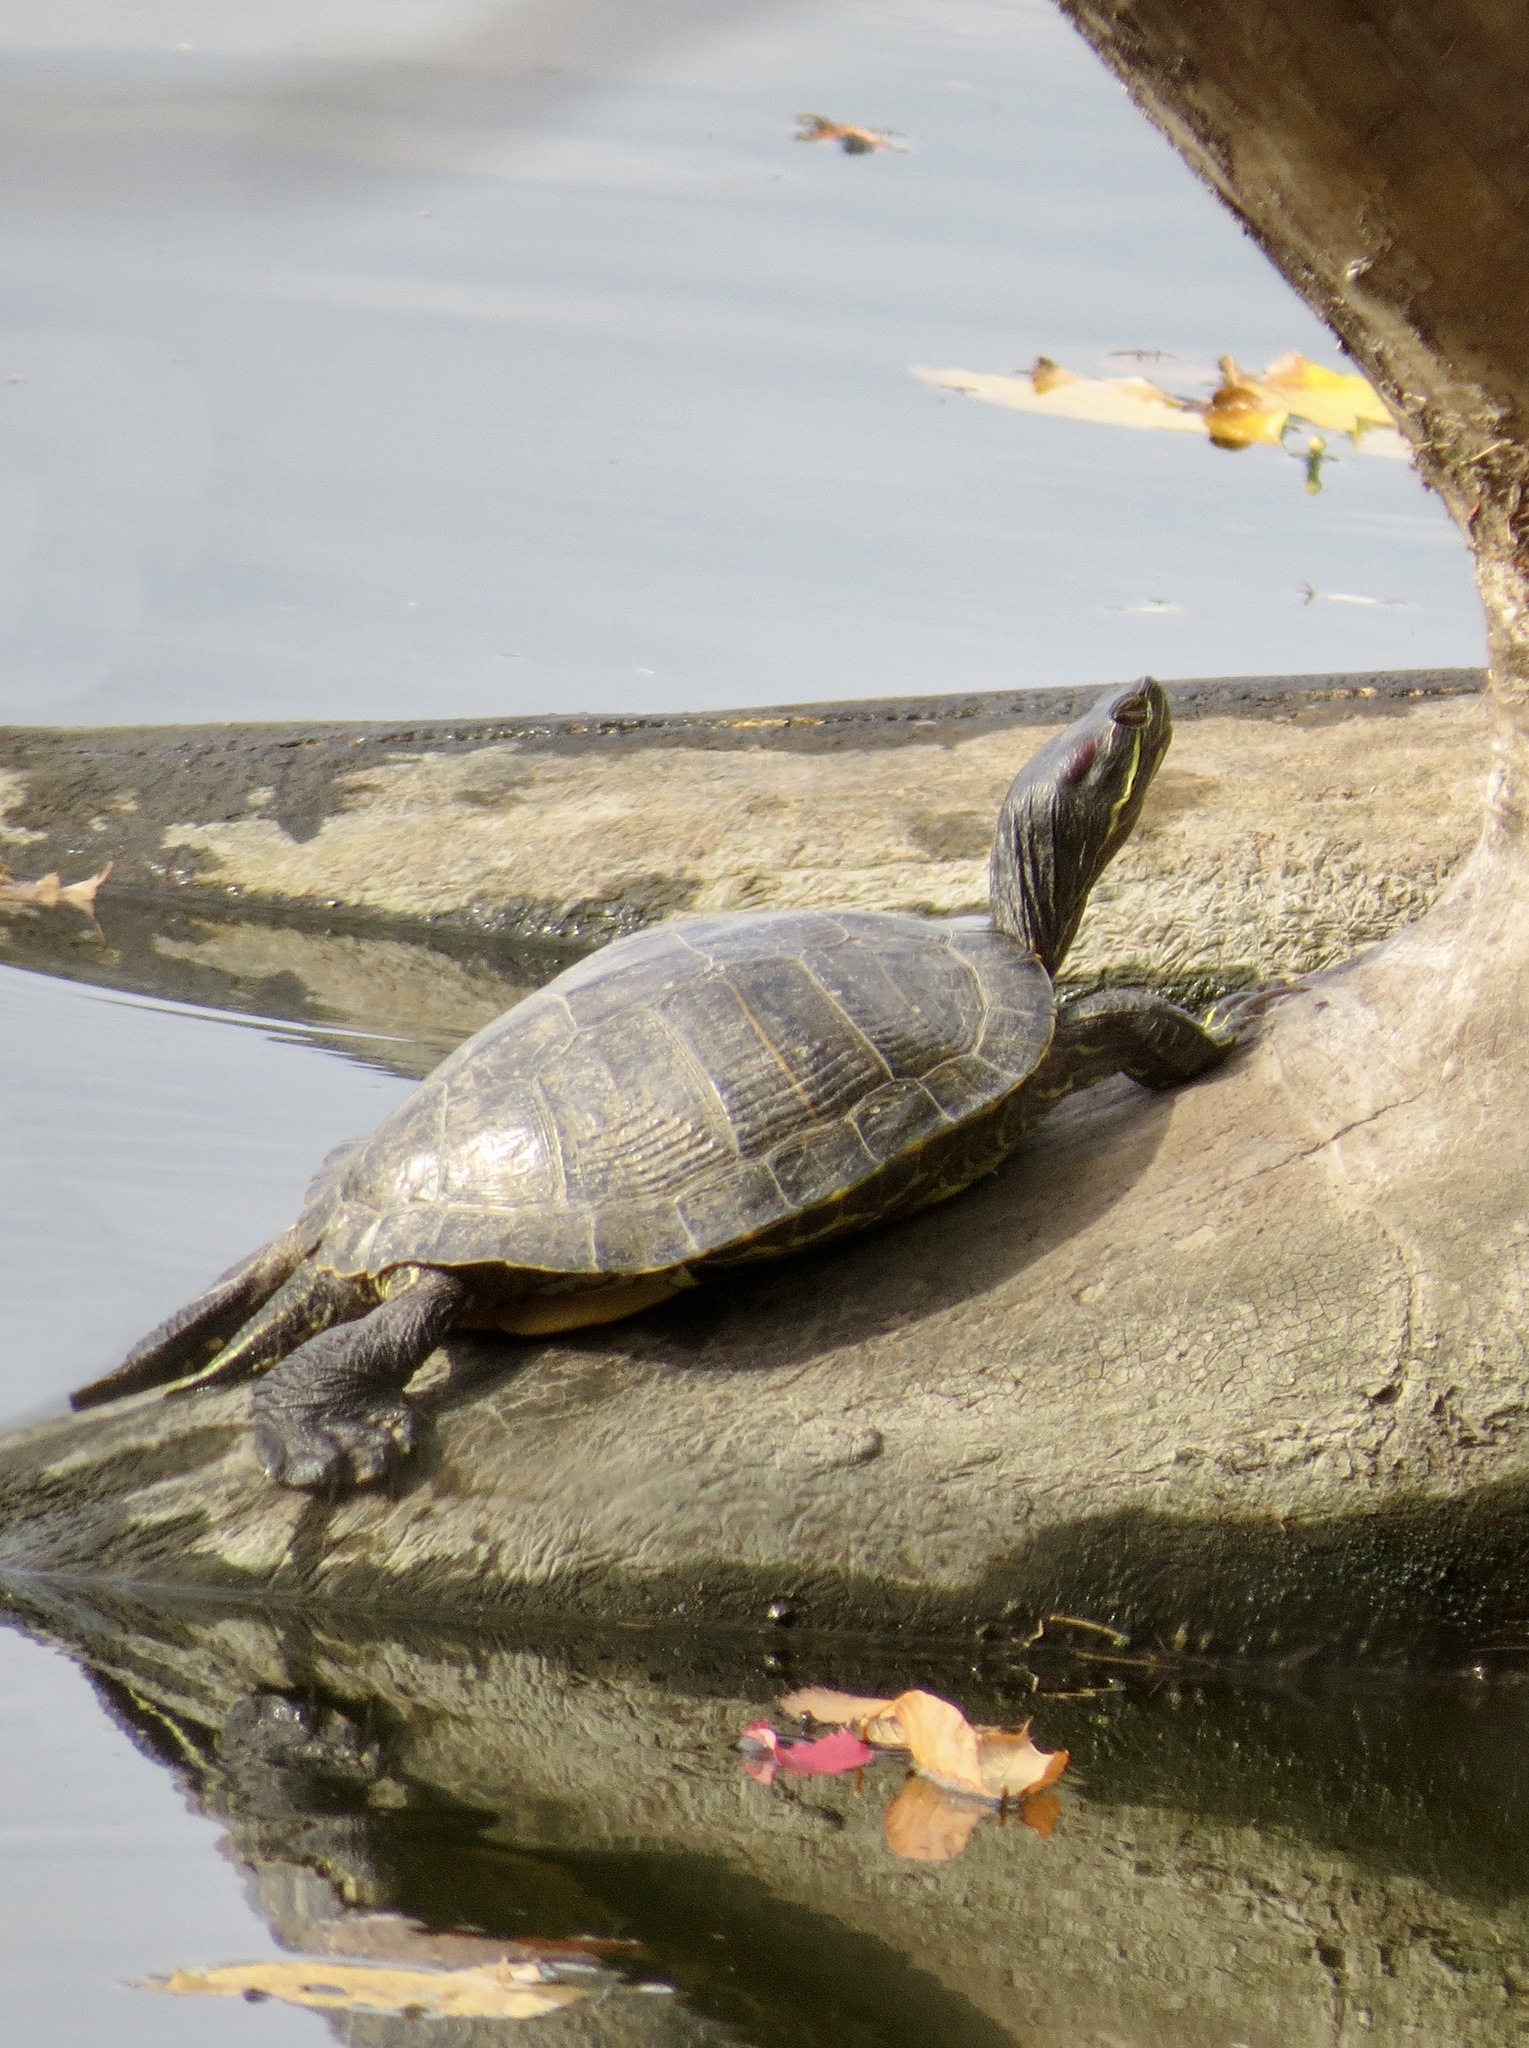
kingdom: Animalia
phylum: Chordata
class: Testudines
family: Emydidae
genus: Trachemys
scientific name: Trachemys scripta
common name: Slider
